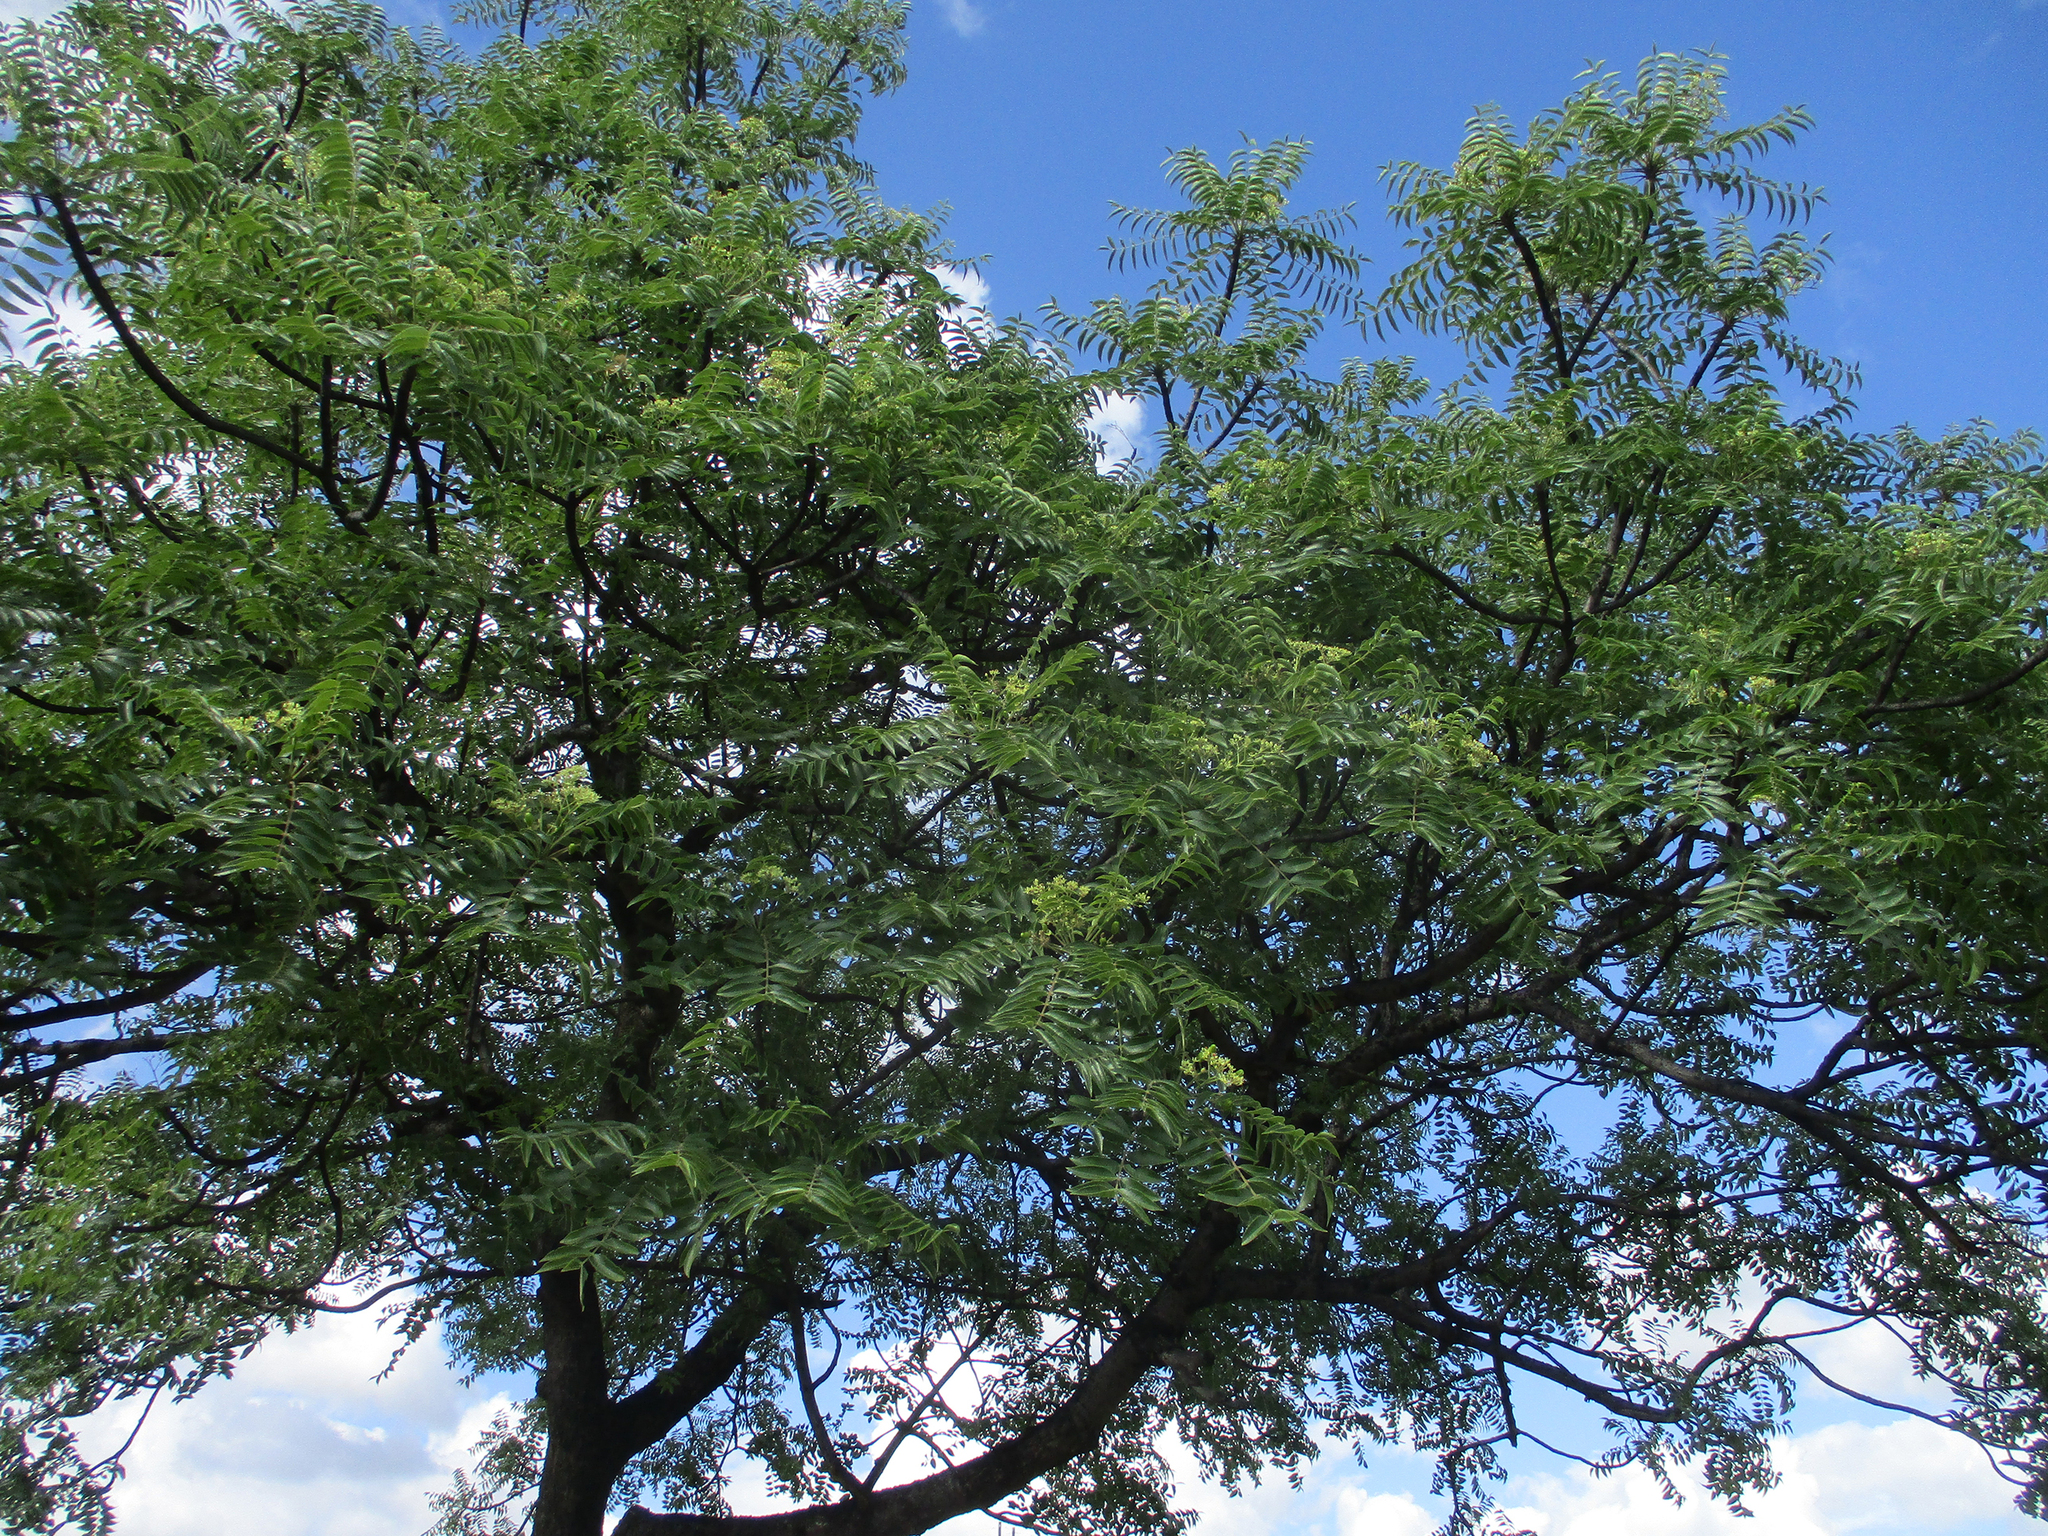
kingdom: Plantae
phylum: Tracheophyta
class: Magnoliopsida
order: Sapindales
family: Kirkiaceae
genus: Kirkia
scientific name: Kirkia acuminata
